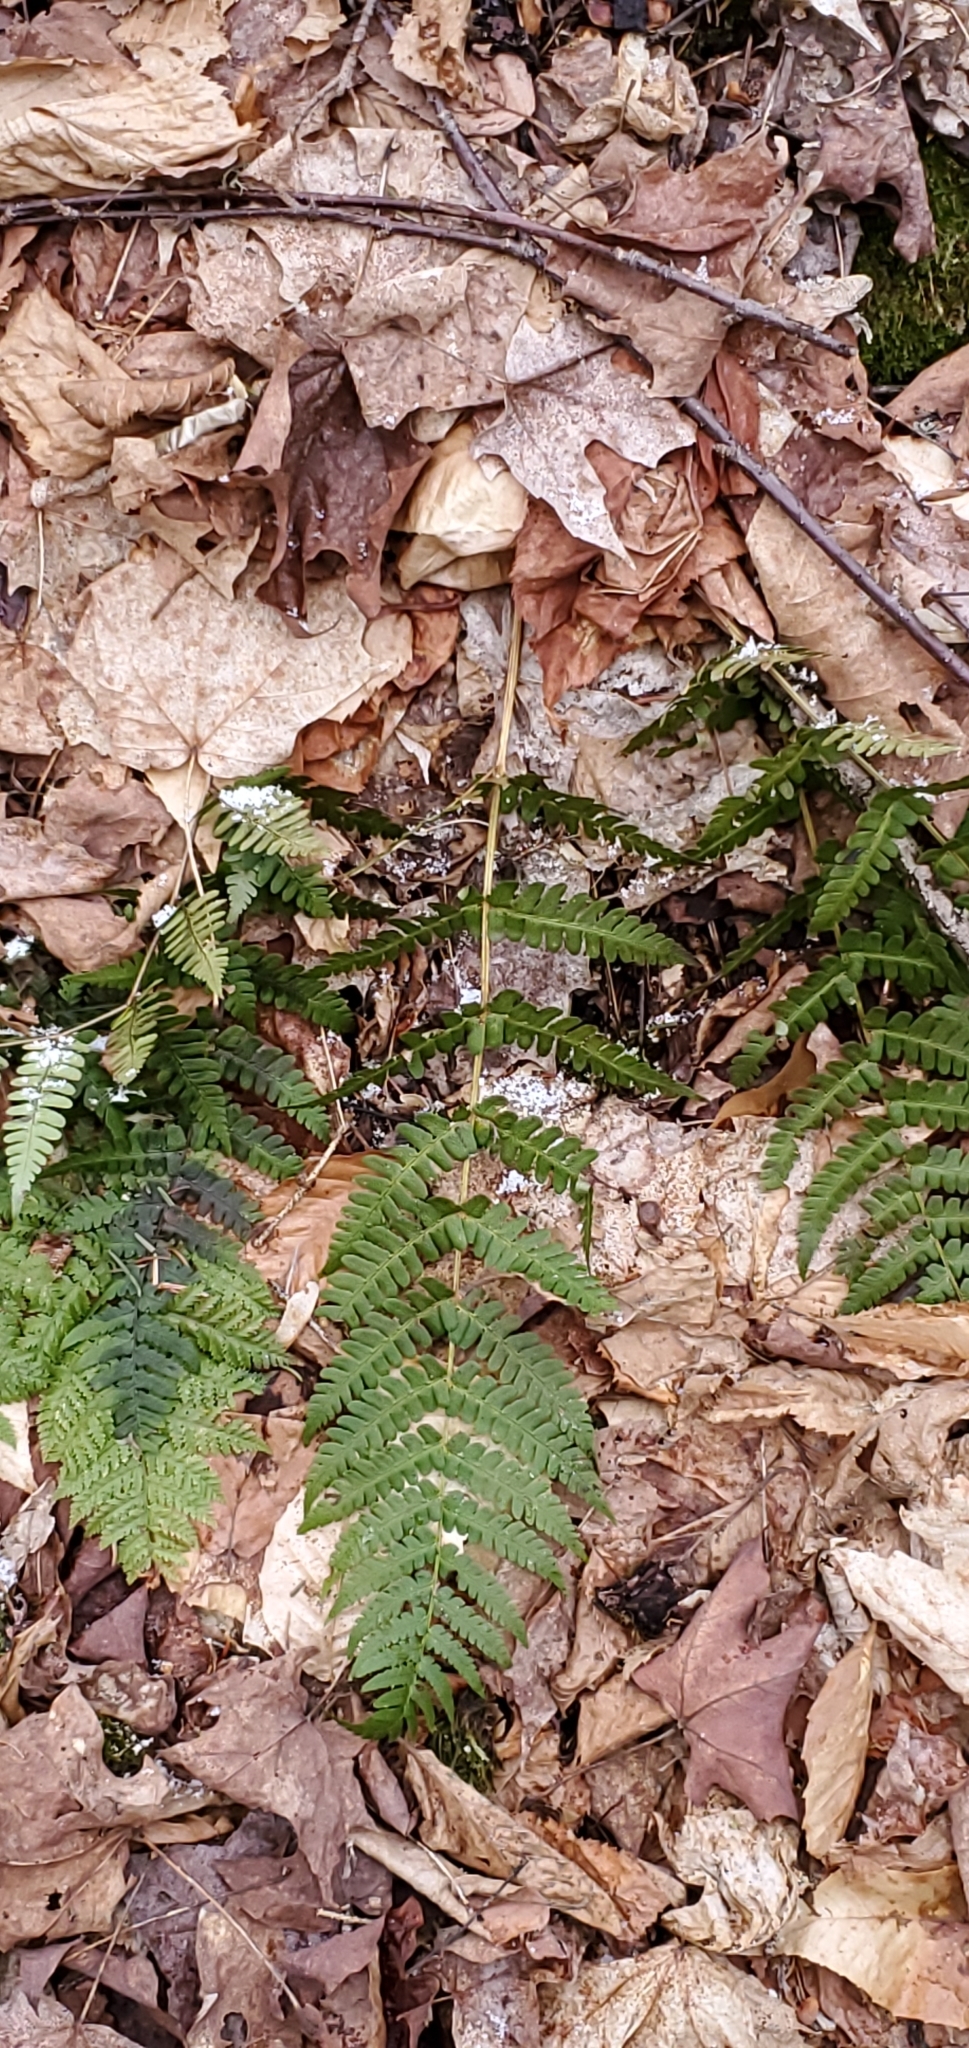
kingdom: Plantae
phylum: Tracheophyta
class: Polypodiopsida
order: Polypodiales
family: Dryopteridaceae
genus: Dryopteris
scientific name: Dryopteris marginalis
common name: Marginal wood fern
